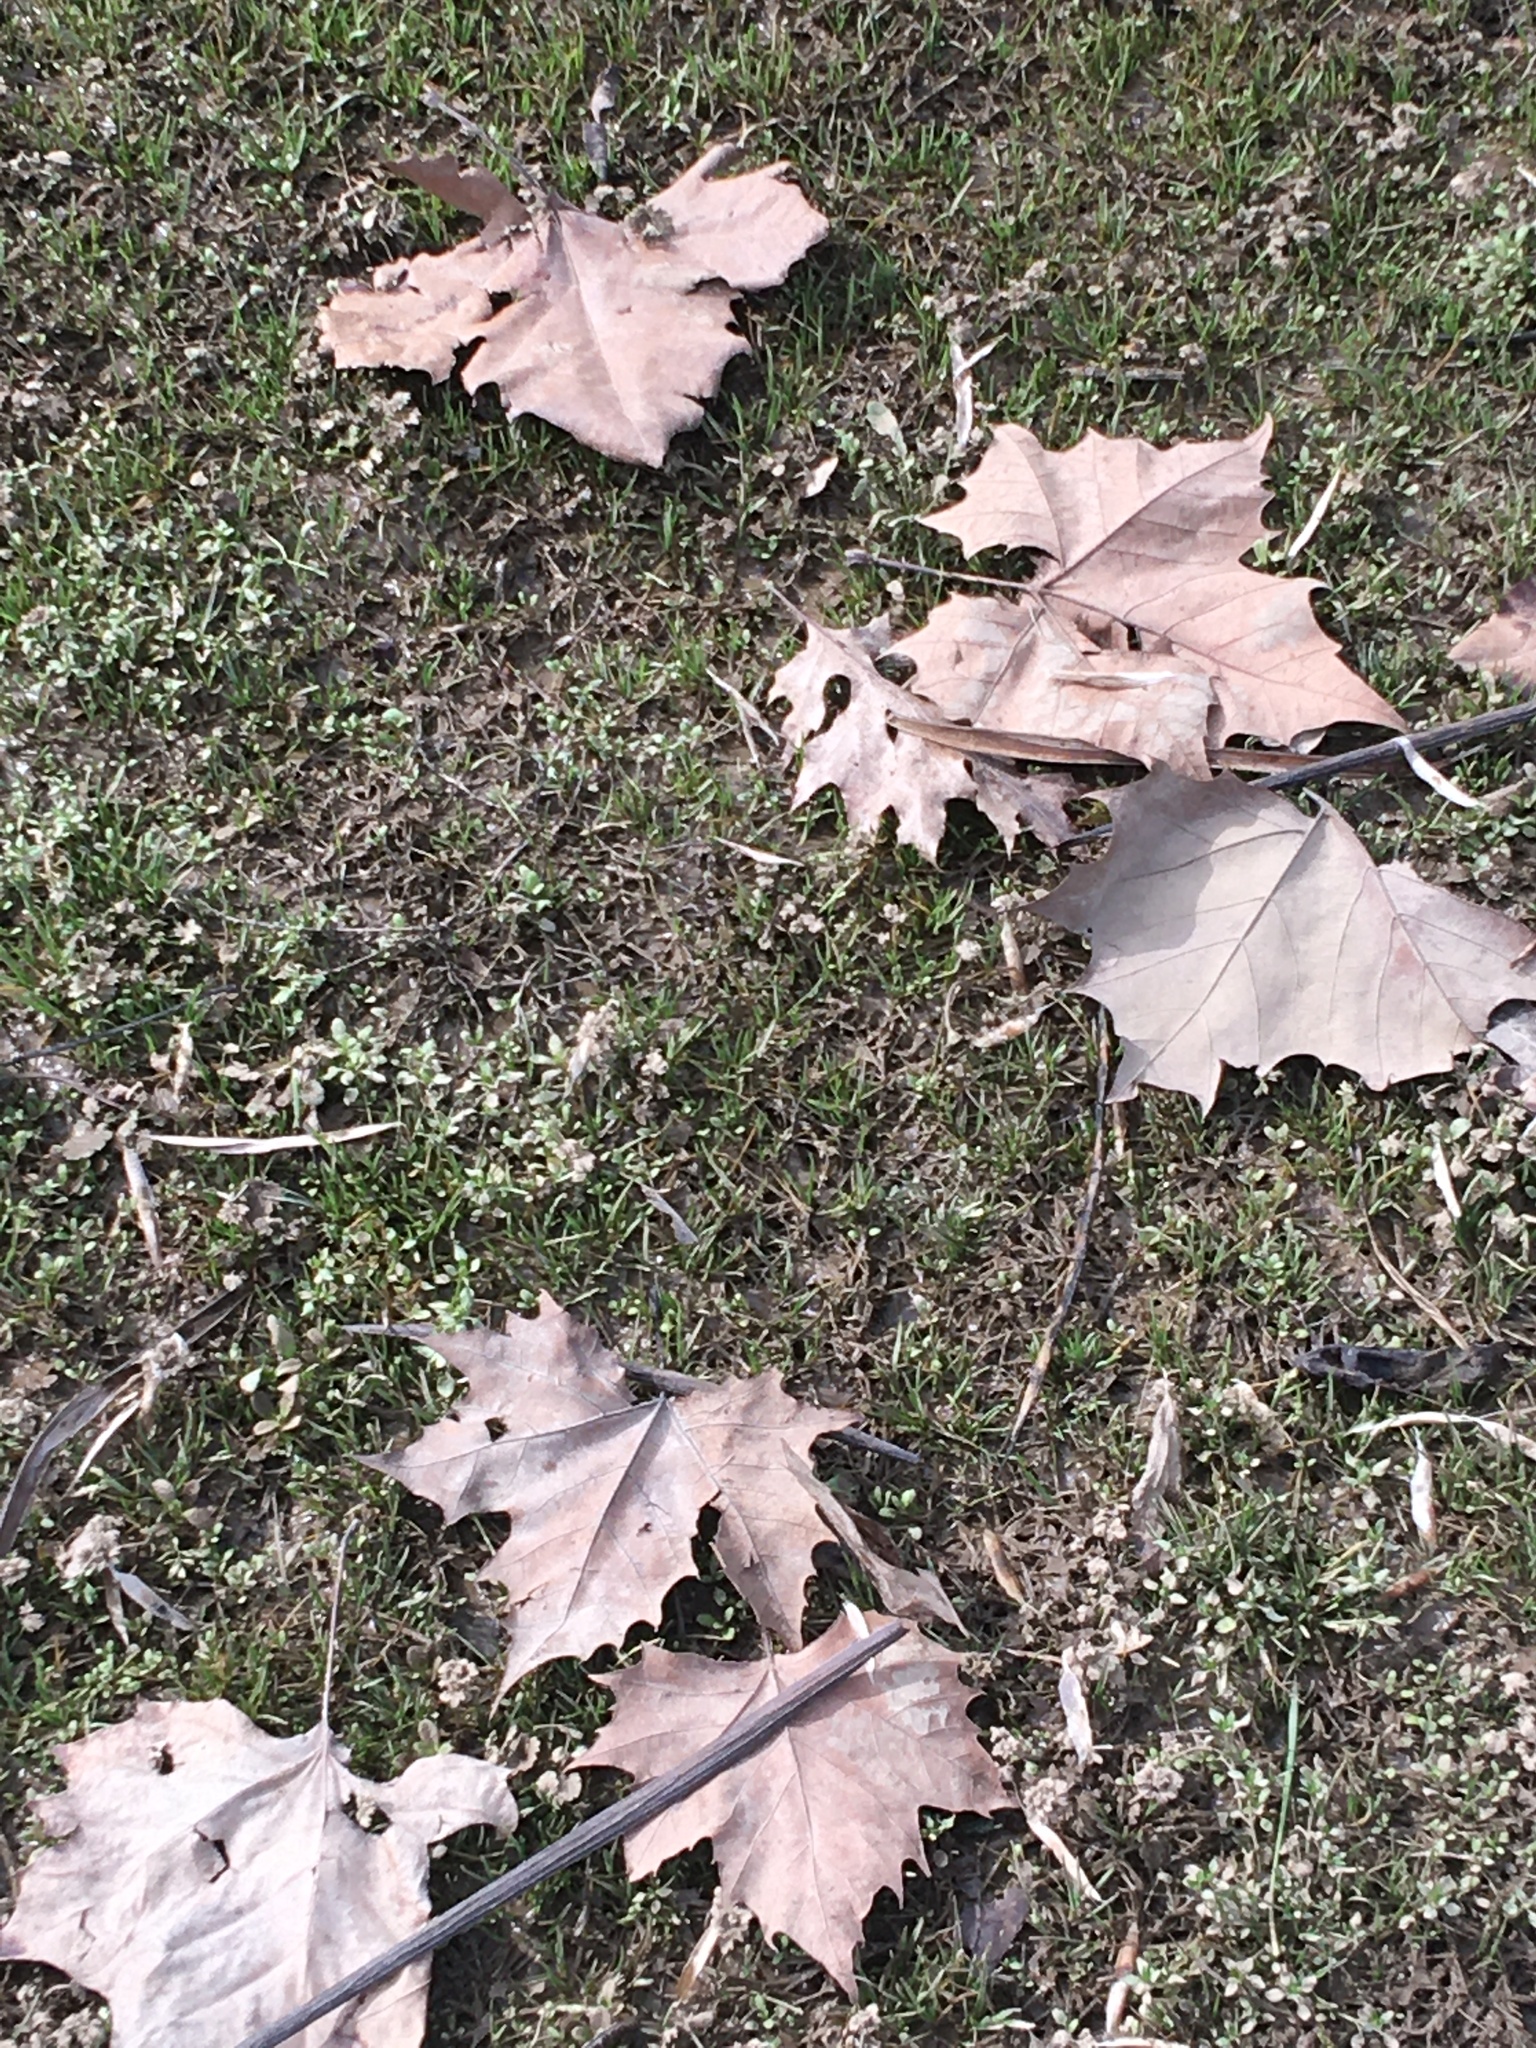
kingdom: Plantae
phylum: Tracheophyta
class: Magnoliopsida
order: Proteales
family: Platanaceae
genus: Platanus
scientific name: Platanus occidentalis
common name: American sycamore
